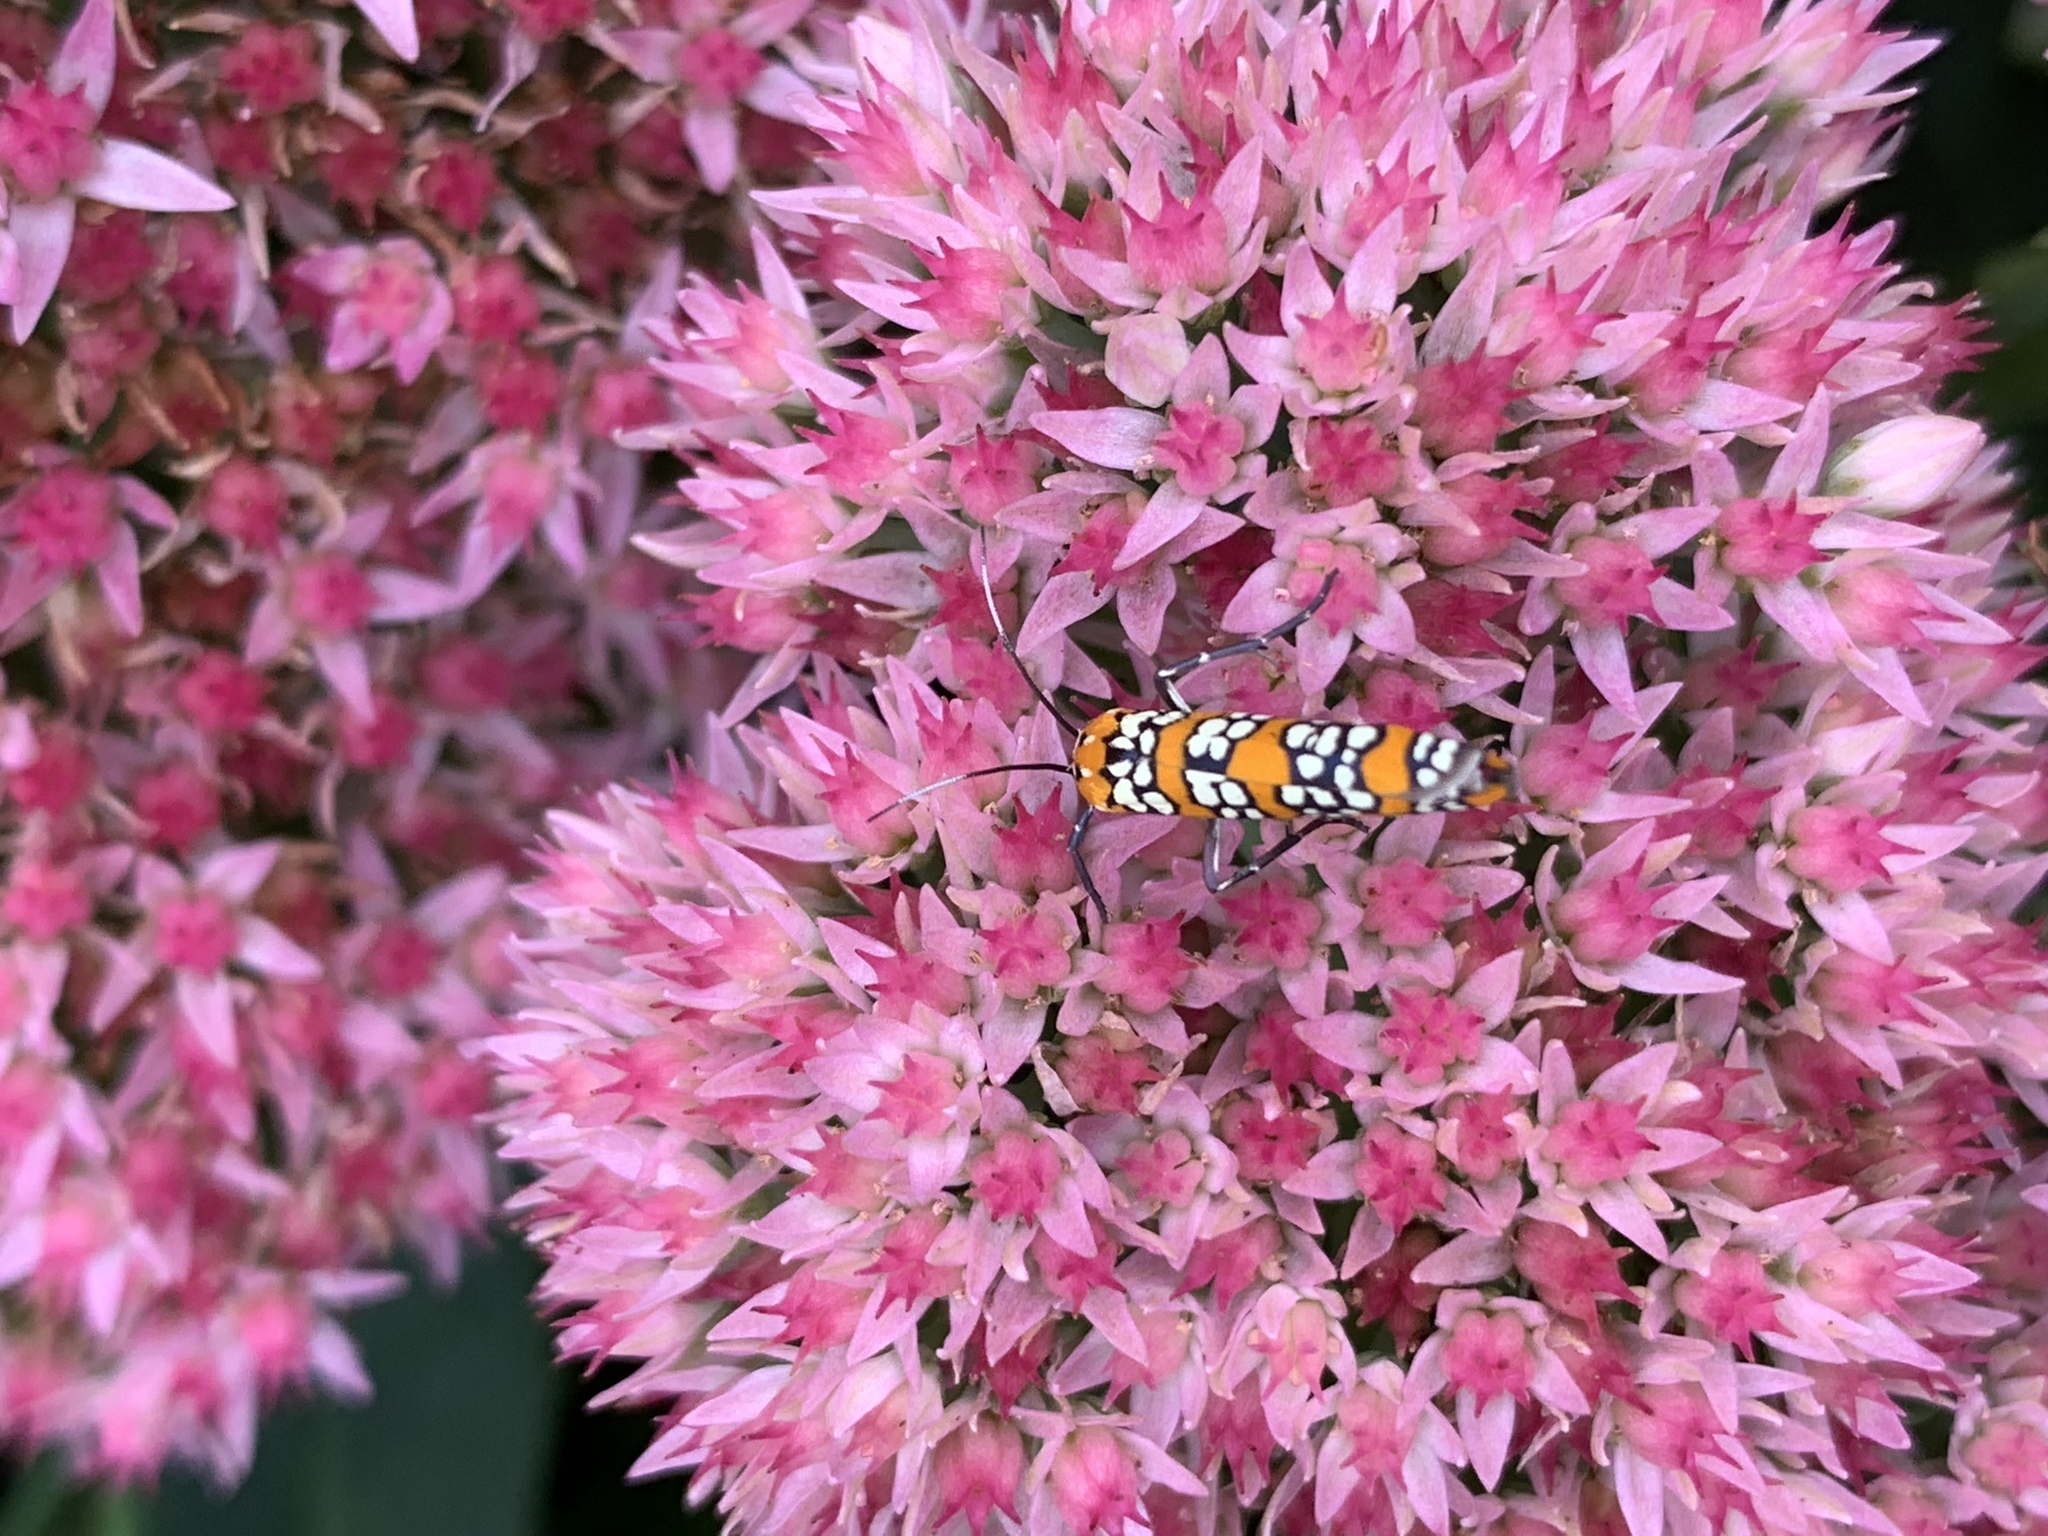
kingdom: Animalia
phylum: Arthropoda
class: Insecta
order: Lepidoptera
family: Attevidae
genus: Atteva
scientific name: Atteva punctella
